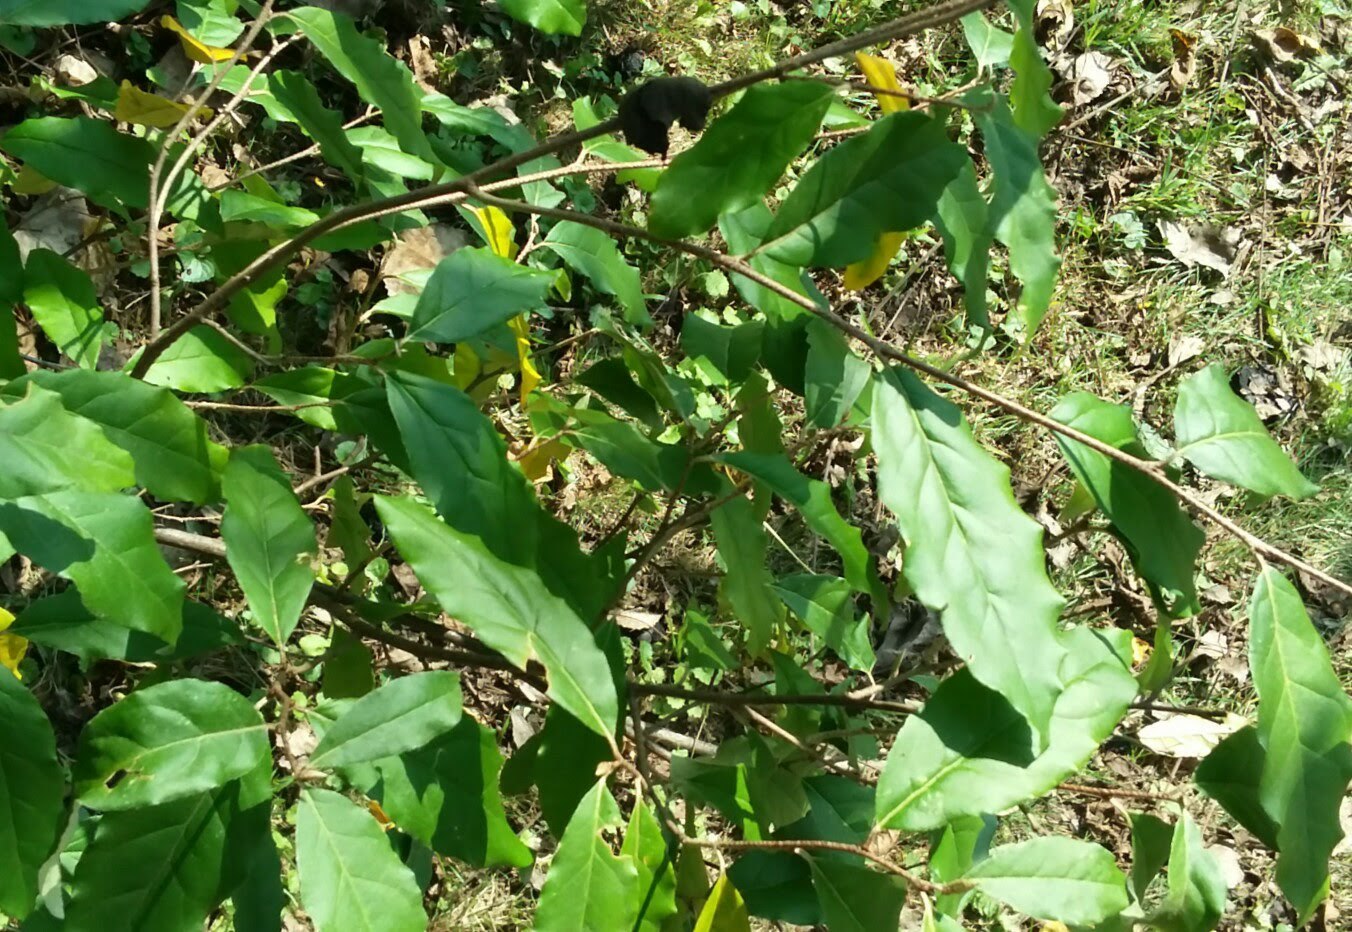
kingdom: Plantae
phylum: Tracheophyta
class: Magnoliopsida
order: Rosales
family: Elaeagnaceae
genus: Elaeagnus
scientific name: Elaeagnus umbellata
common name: Autumn olive
